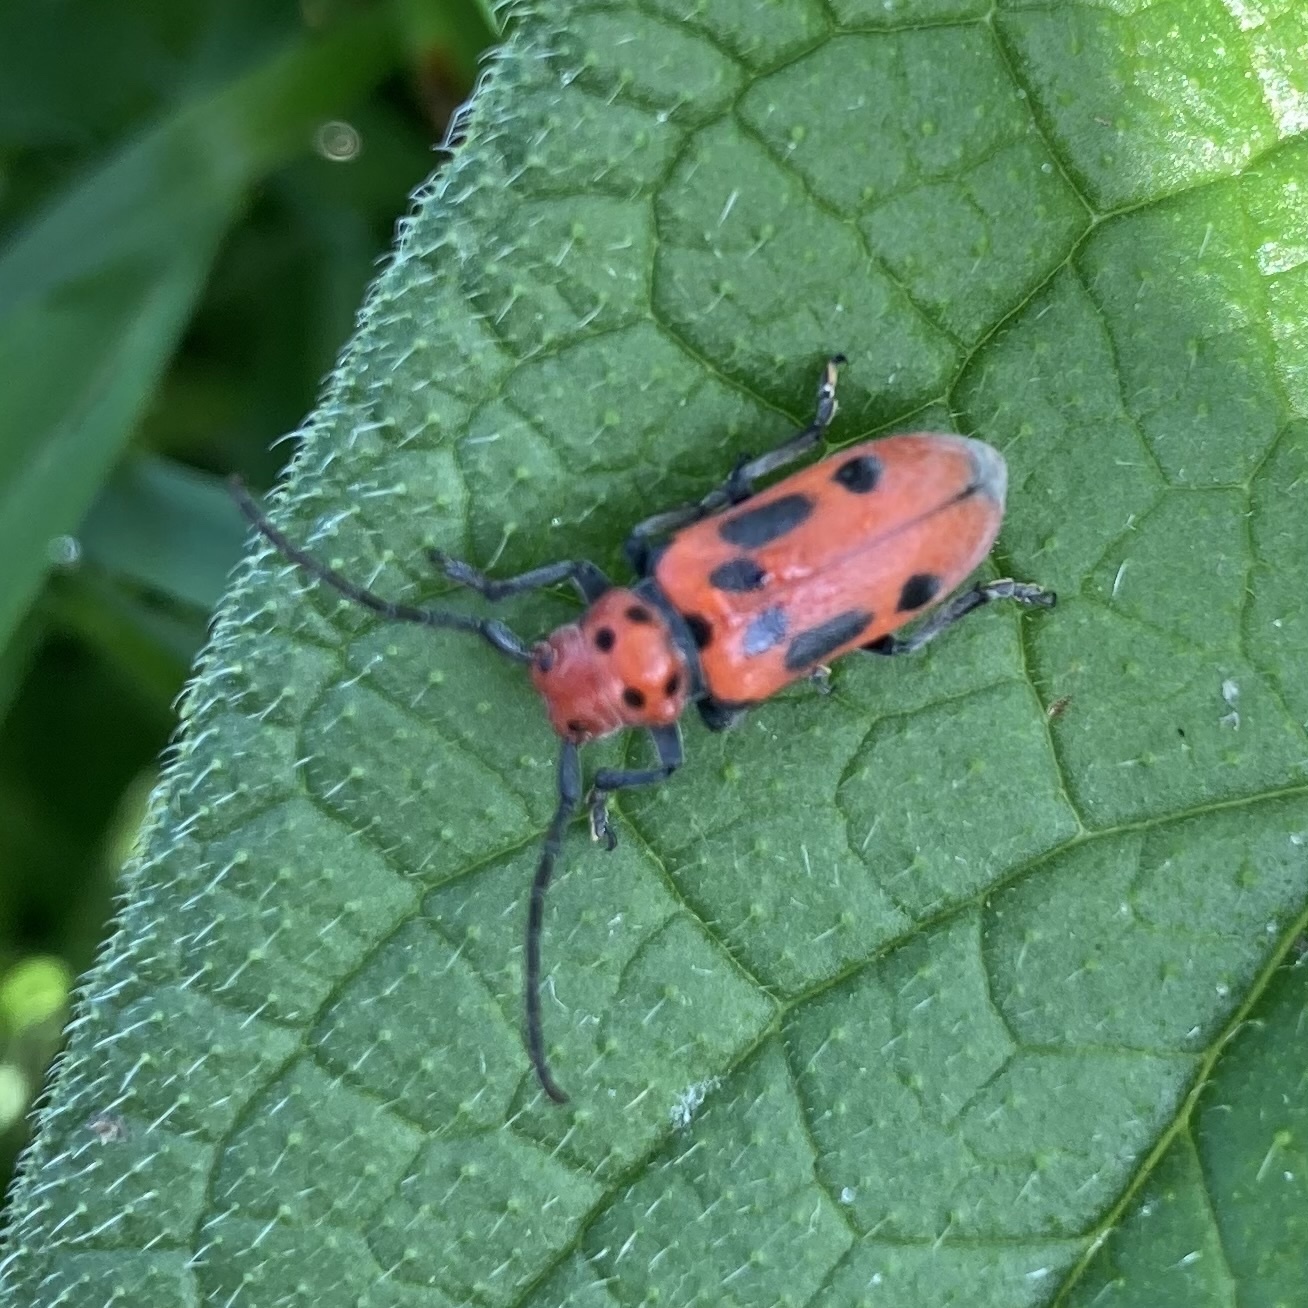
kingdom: Animalia
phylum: Arthropoda
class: Insecta
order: Coleoptera
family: Cerambycidae
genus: Tetraopes
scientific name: Tetraopes tetrophthalmus
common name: Red milkweed beetle
